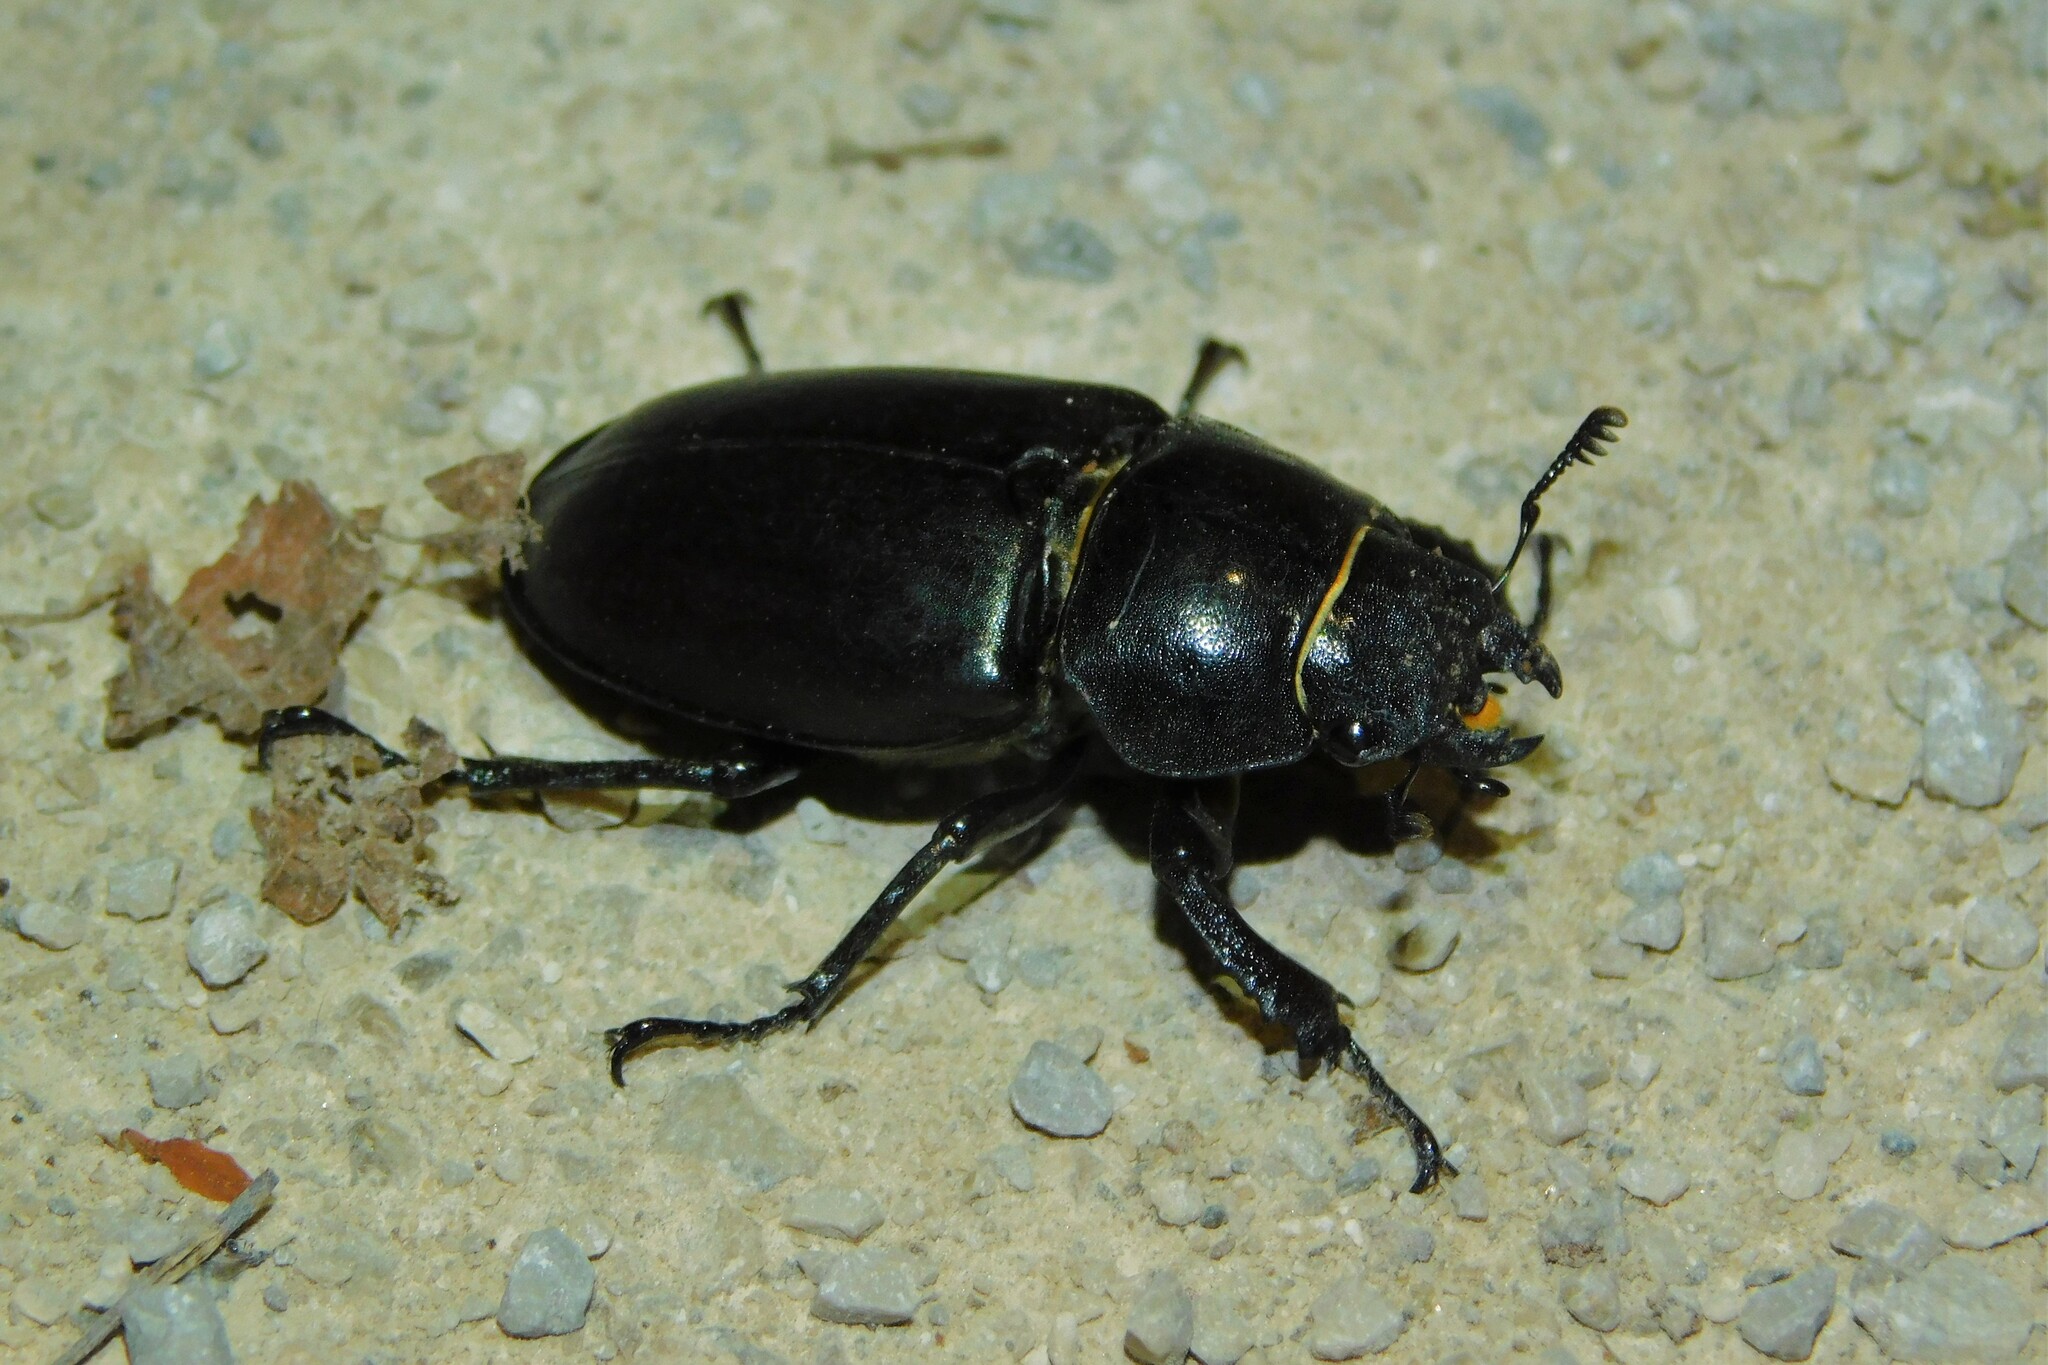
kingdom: Animalia
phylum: Arthropoda
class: Insecta
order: Coleoptera
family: Lucanidae
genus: Lucanus
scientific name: Lucanus cervus
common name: Stag beetle
